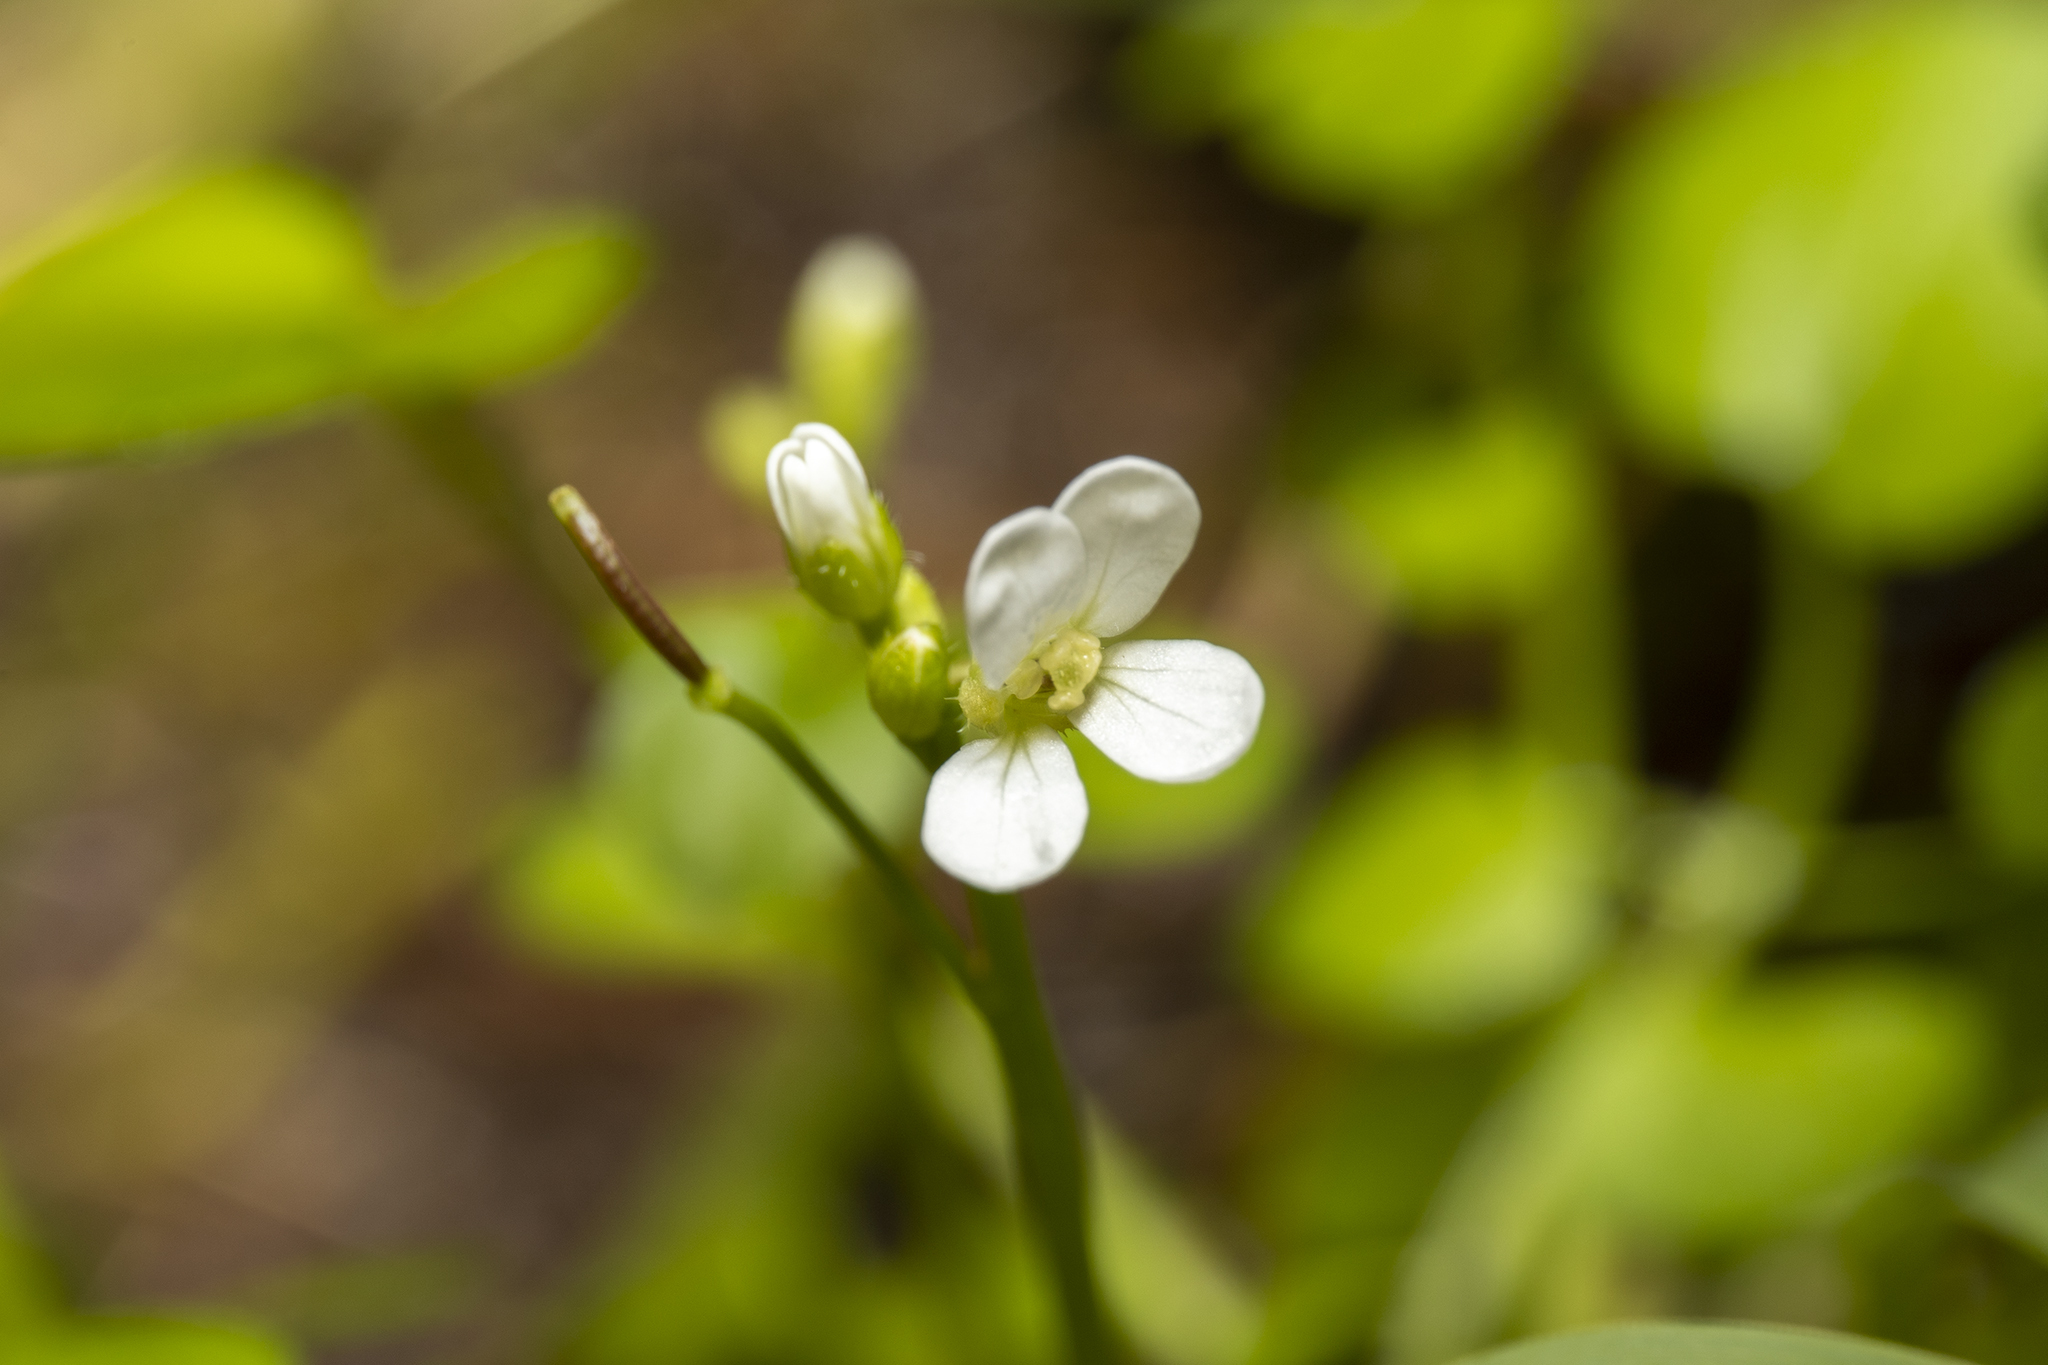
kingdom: Plantae
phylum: Tracheophyta
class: Magnoliopsida
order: Brassicales
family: Brassicaceae
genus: Cardamine
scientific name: Cardamine corymbosa
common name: New zealand bitter-cress
